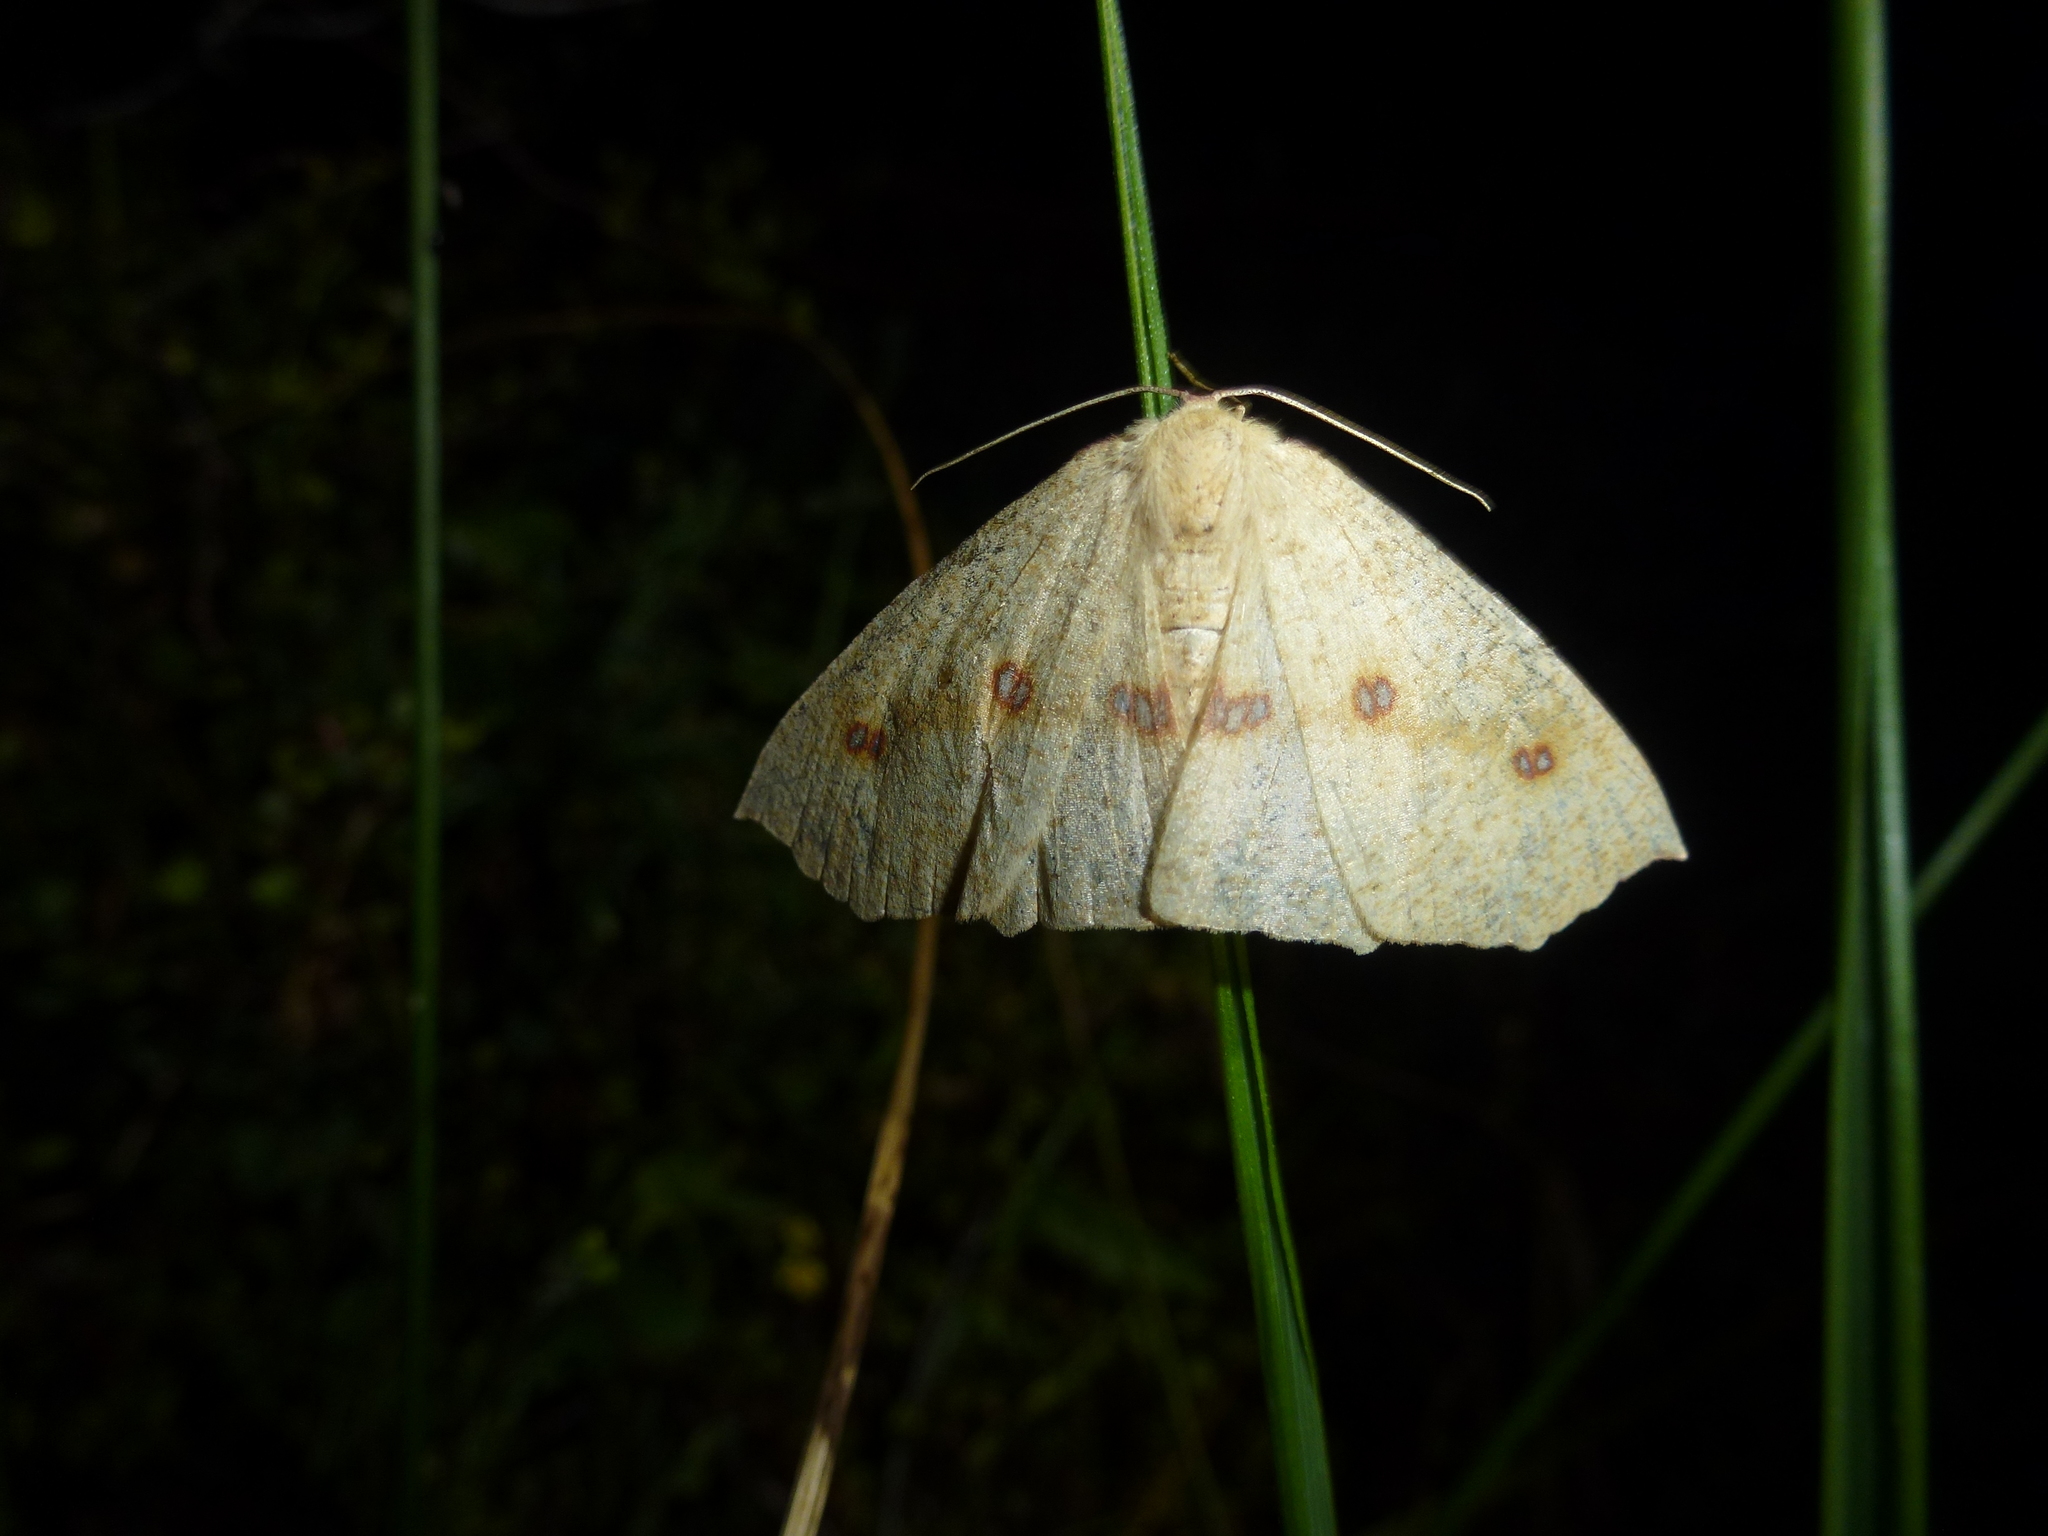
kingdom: Animalia
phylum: Arthropoda
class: Insecta
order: Lepidoptera
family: Geometridae
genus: Xyridacma
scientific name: Xyridacma alectoraria
